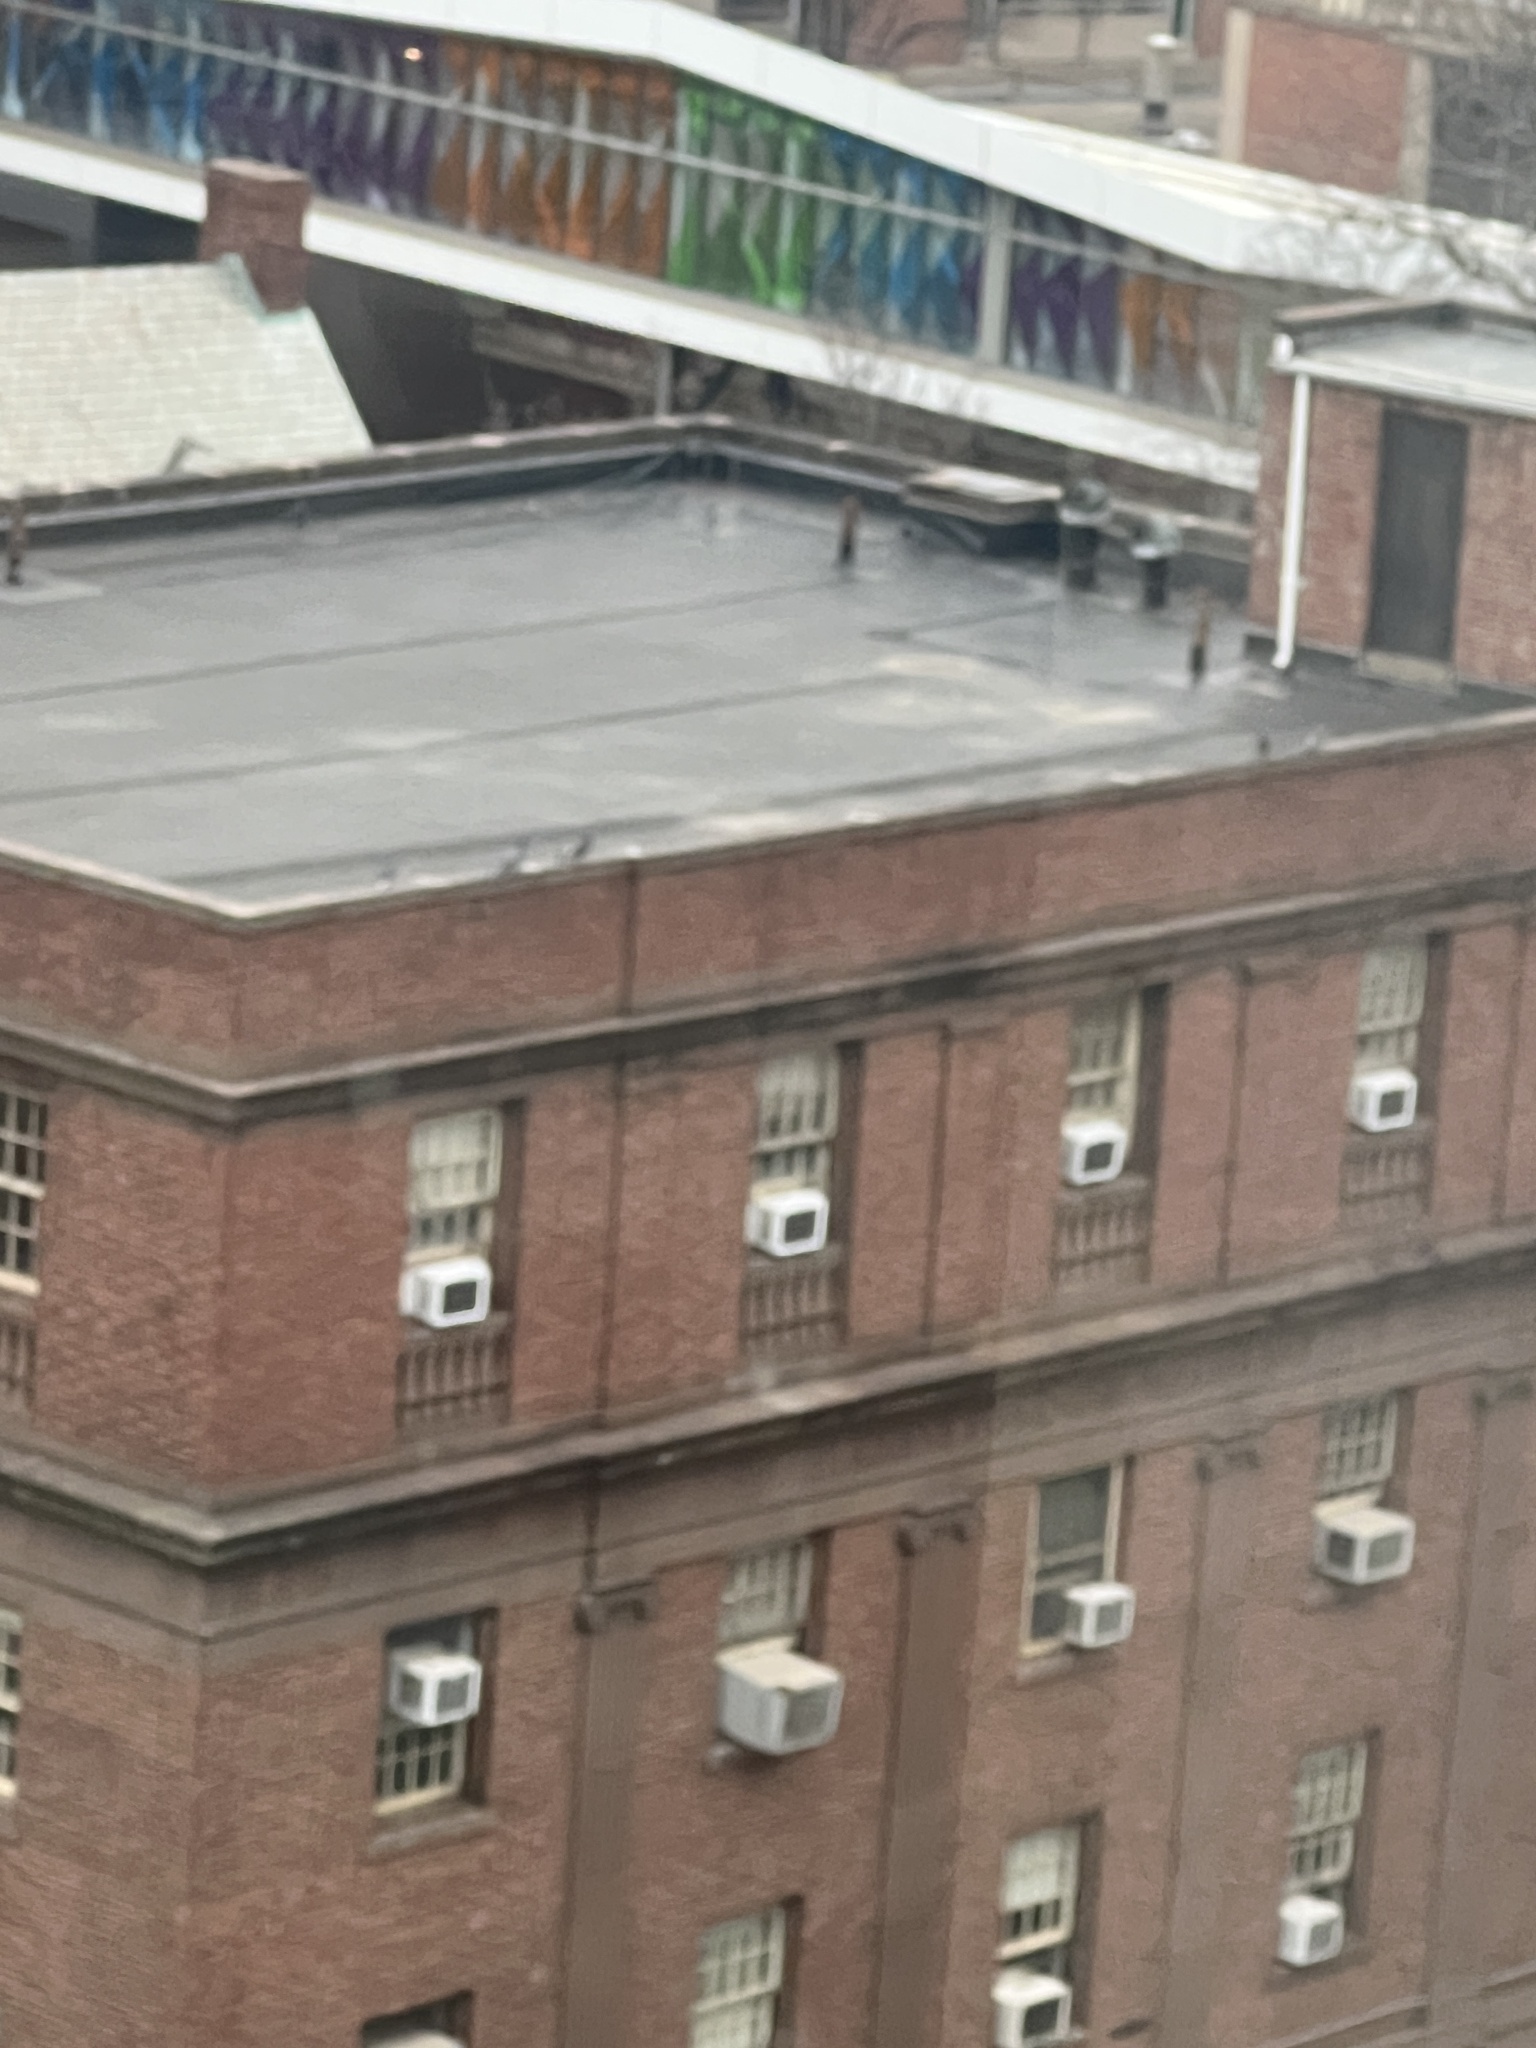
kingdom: Animalia
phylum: Chordata
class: Aves
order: Columbiformes
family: Columbidae
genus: Columba
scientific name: Columba livia
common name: Rock pigeon
